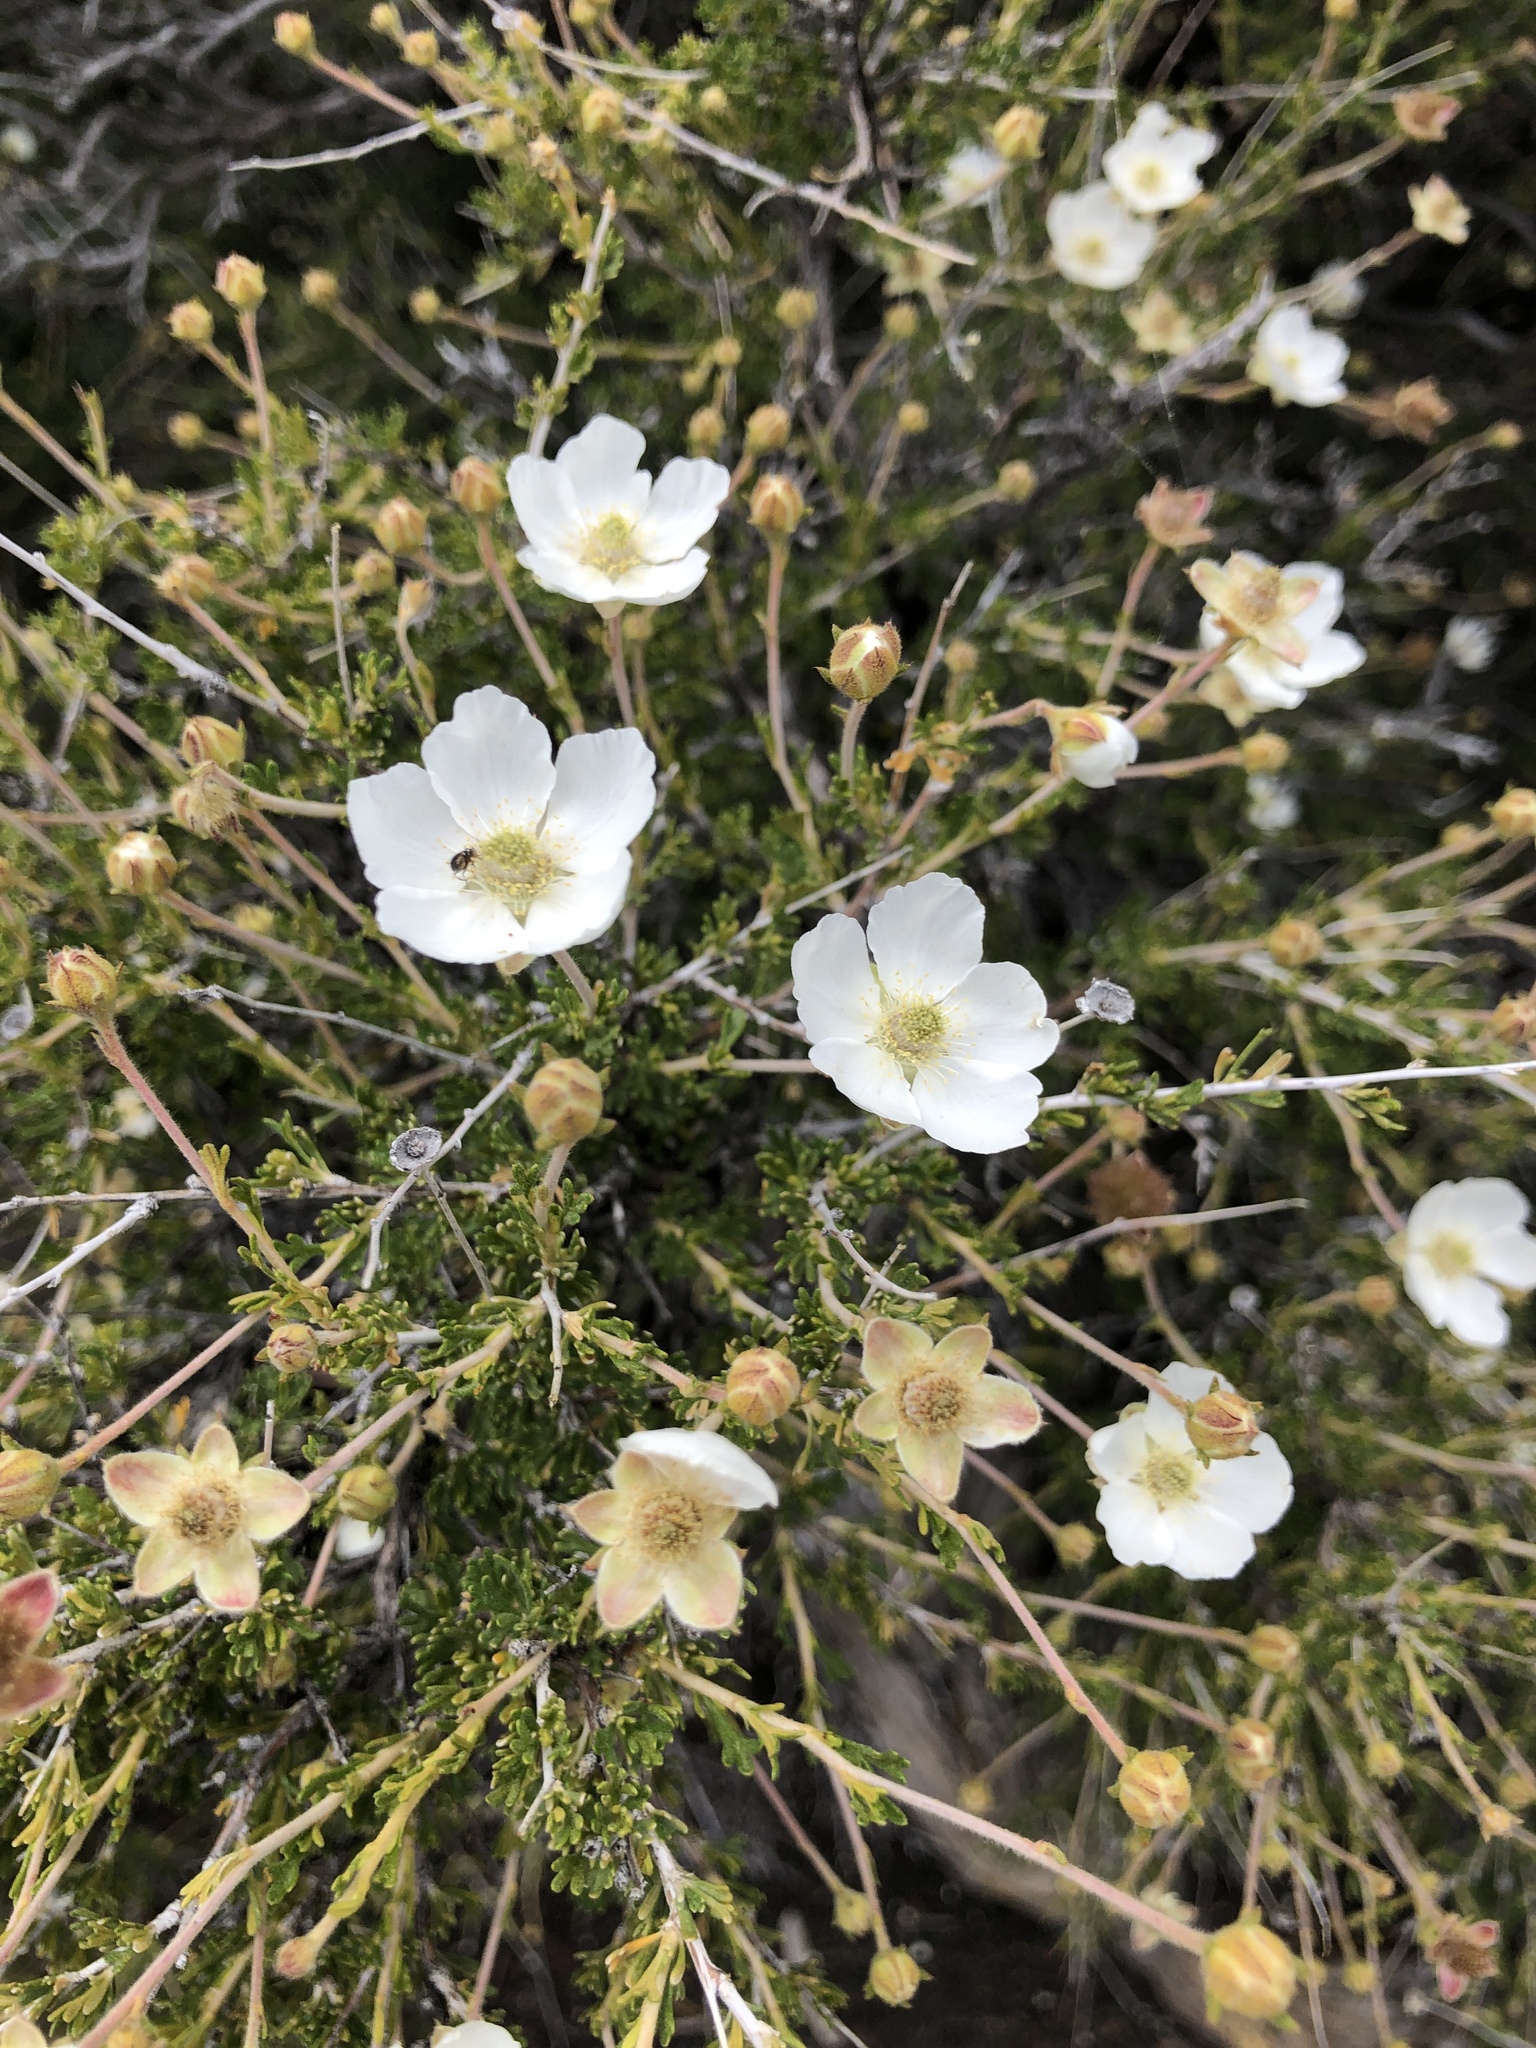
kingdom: Plantae
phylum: Tracheophyta
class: Magnoliopsida
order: Rosales
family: Rosaceae
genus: Fallugia
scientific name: Fallugia paradoxa
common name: Apache-plume
